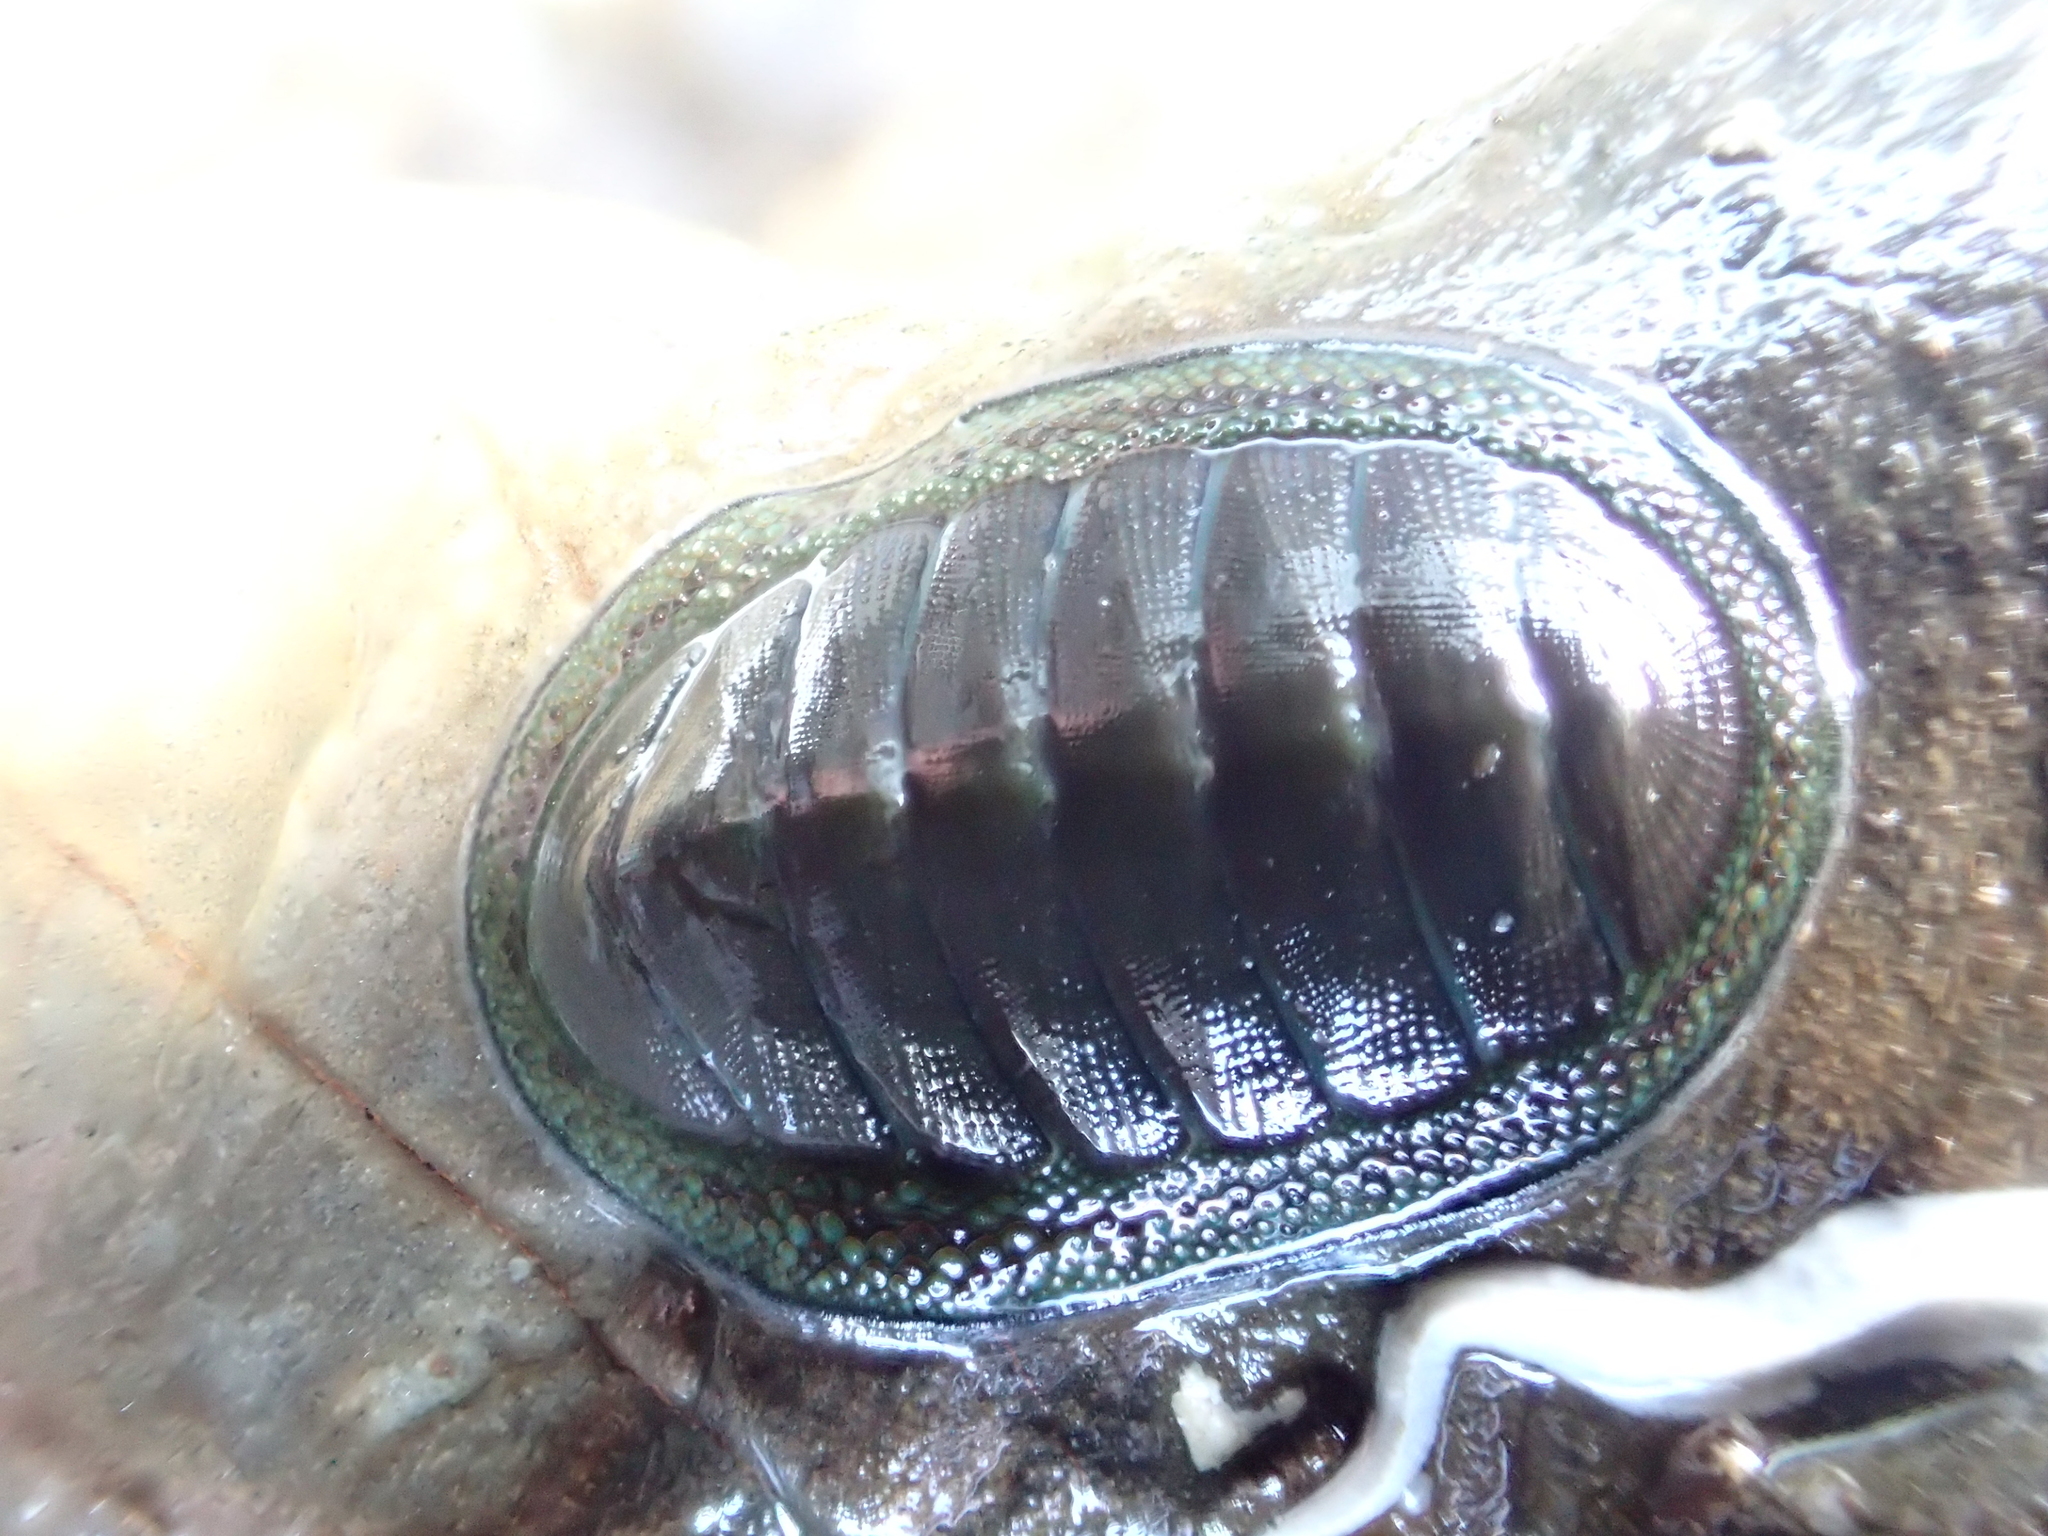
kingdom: Animalia
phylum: Mollusca
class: Polyplacophora
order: Chitonida
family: Chitonidae
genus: Chiton
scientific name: Chiton glaucus
